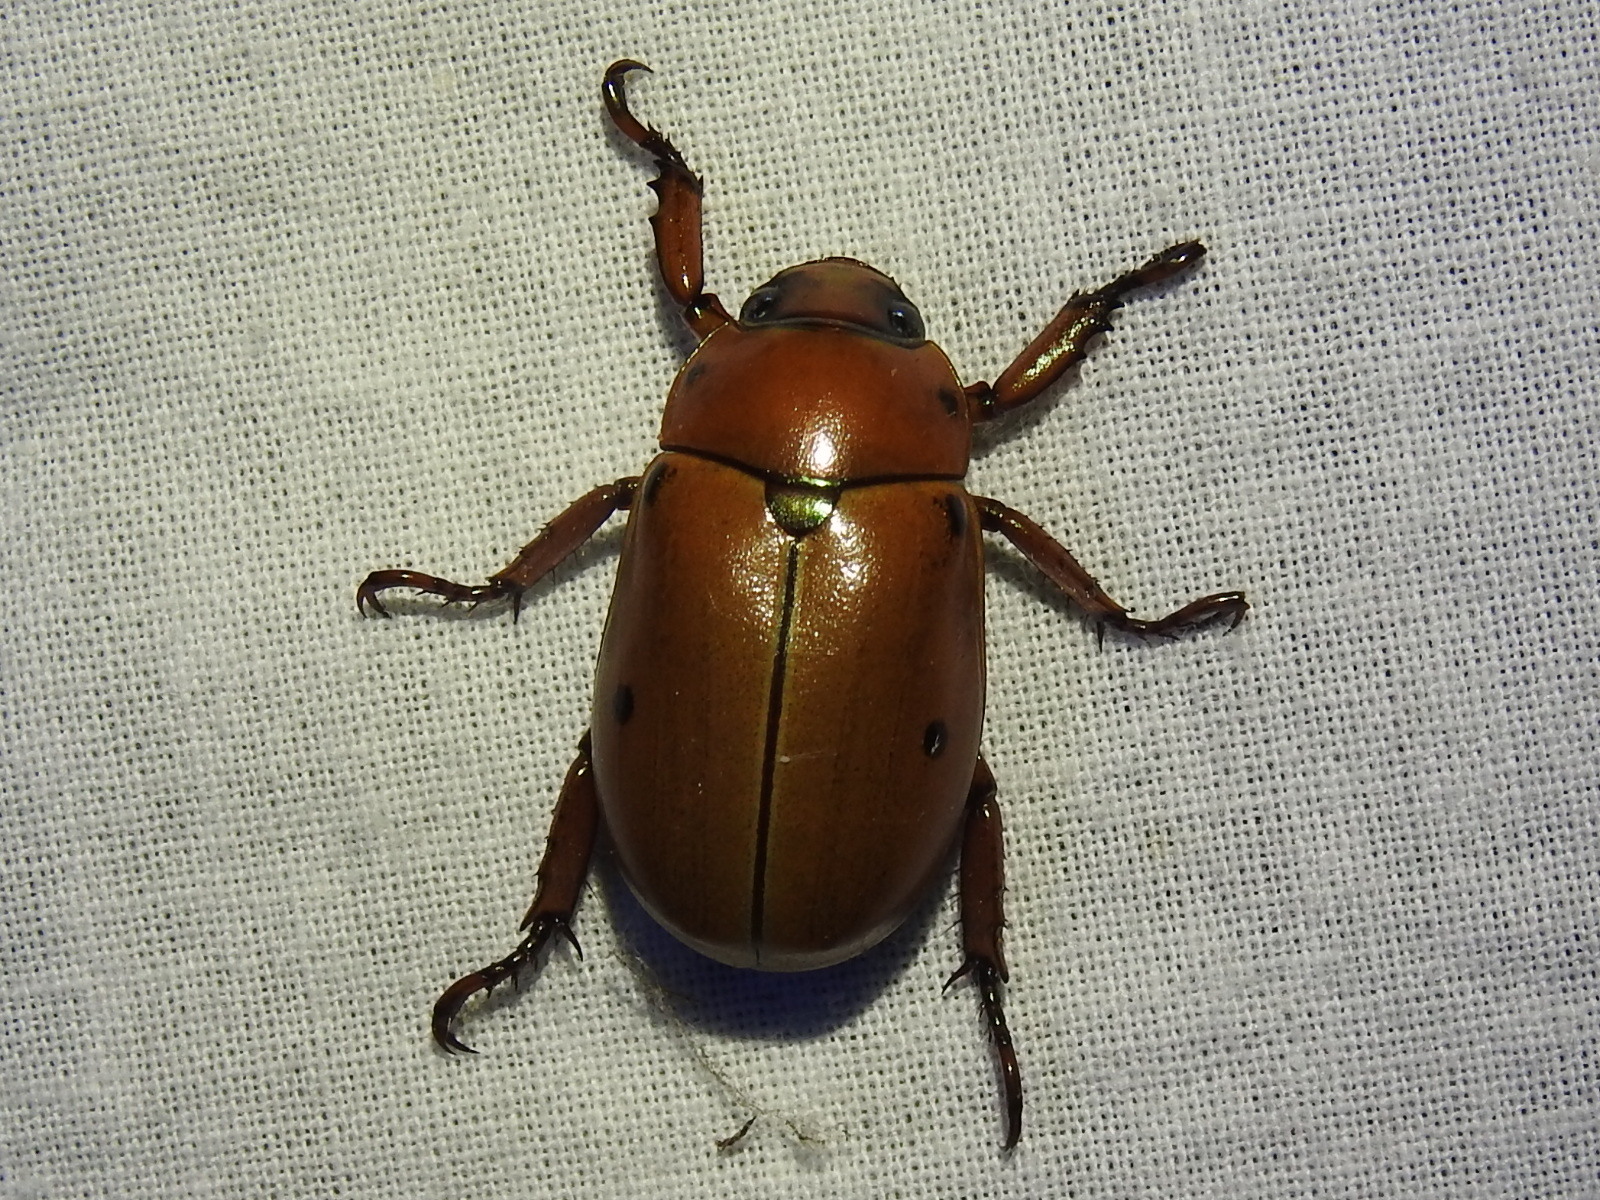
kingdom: Animalia
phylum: Arthropoda
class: Insecta
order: Coleoptera
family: Scarabaeidae
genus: Pelidnota
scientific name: Pelidnota punctata
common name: Grapevine beetle
